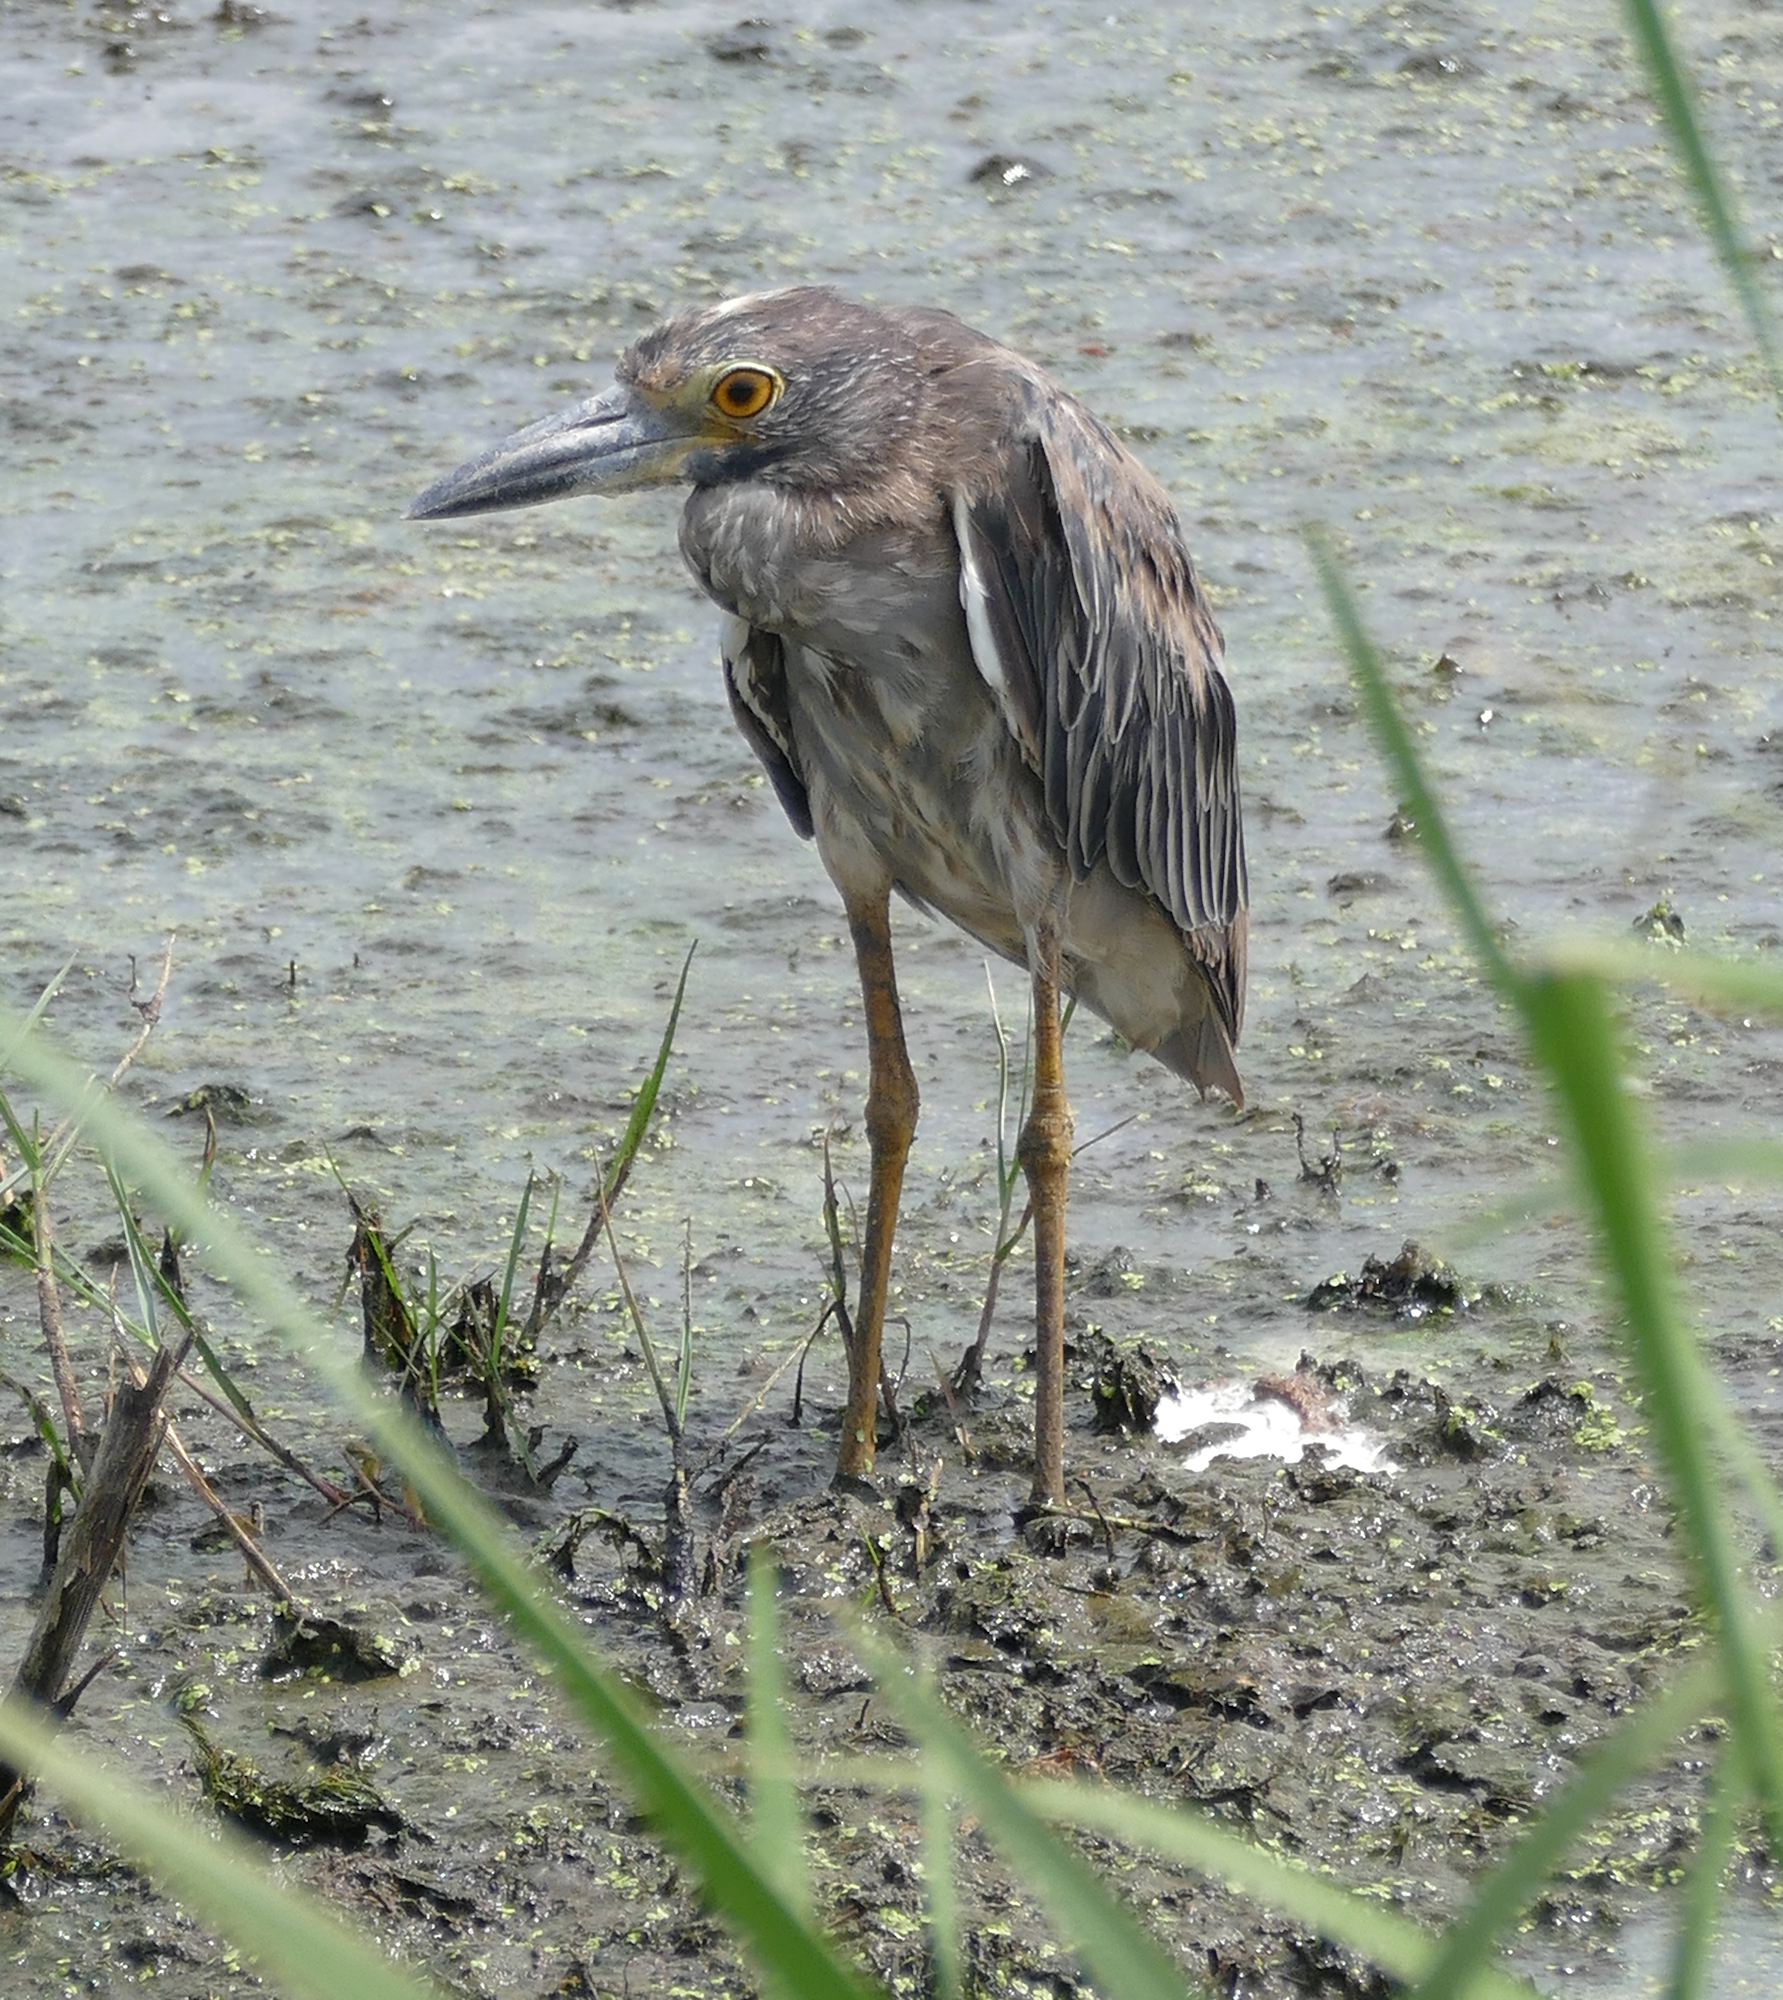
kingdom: Animalia
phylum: Chordata
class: Aves
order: Pelecaniformes
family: Ardeidae
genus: Nyctanassa
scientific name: Nyctanassa violacea
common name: Yellow-crowned night heron
